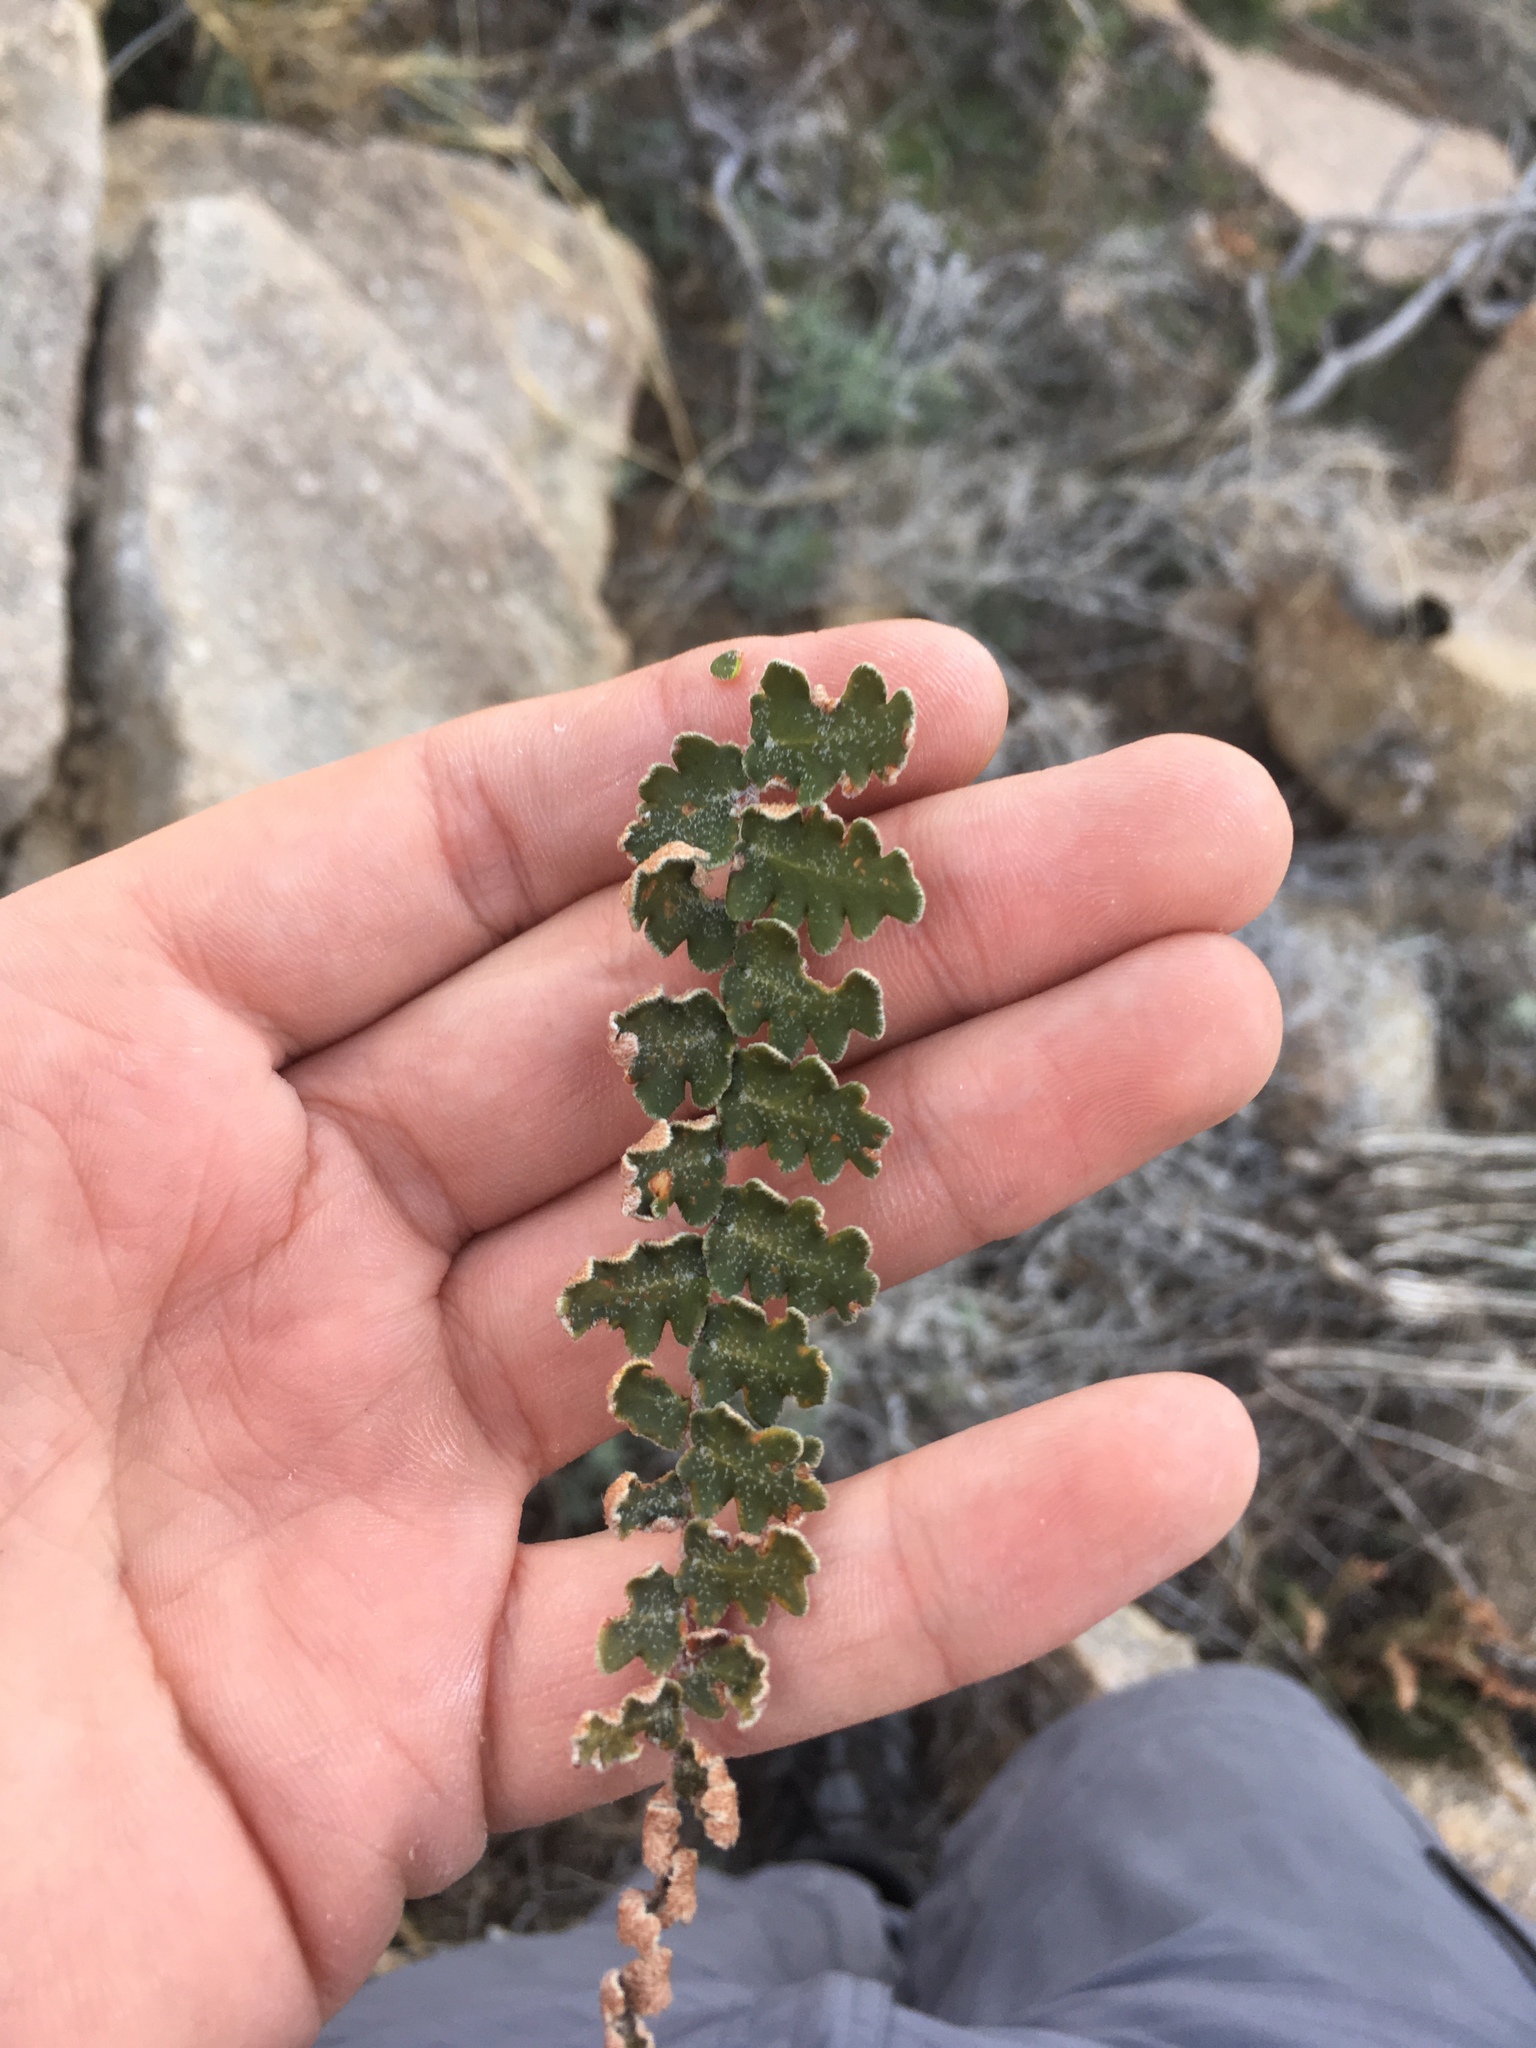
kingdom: Plantae
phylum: Tracheophyta
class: Polypodiopsida
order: Polypodiales
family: Pteridaceae
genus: Astrolepis
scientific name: Astrolepis sinuata
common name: Wavy scaly cloakfern
